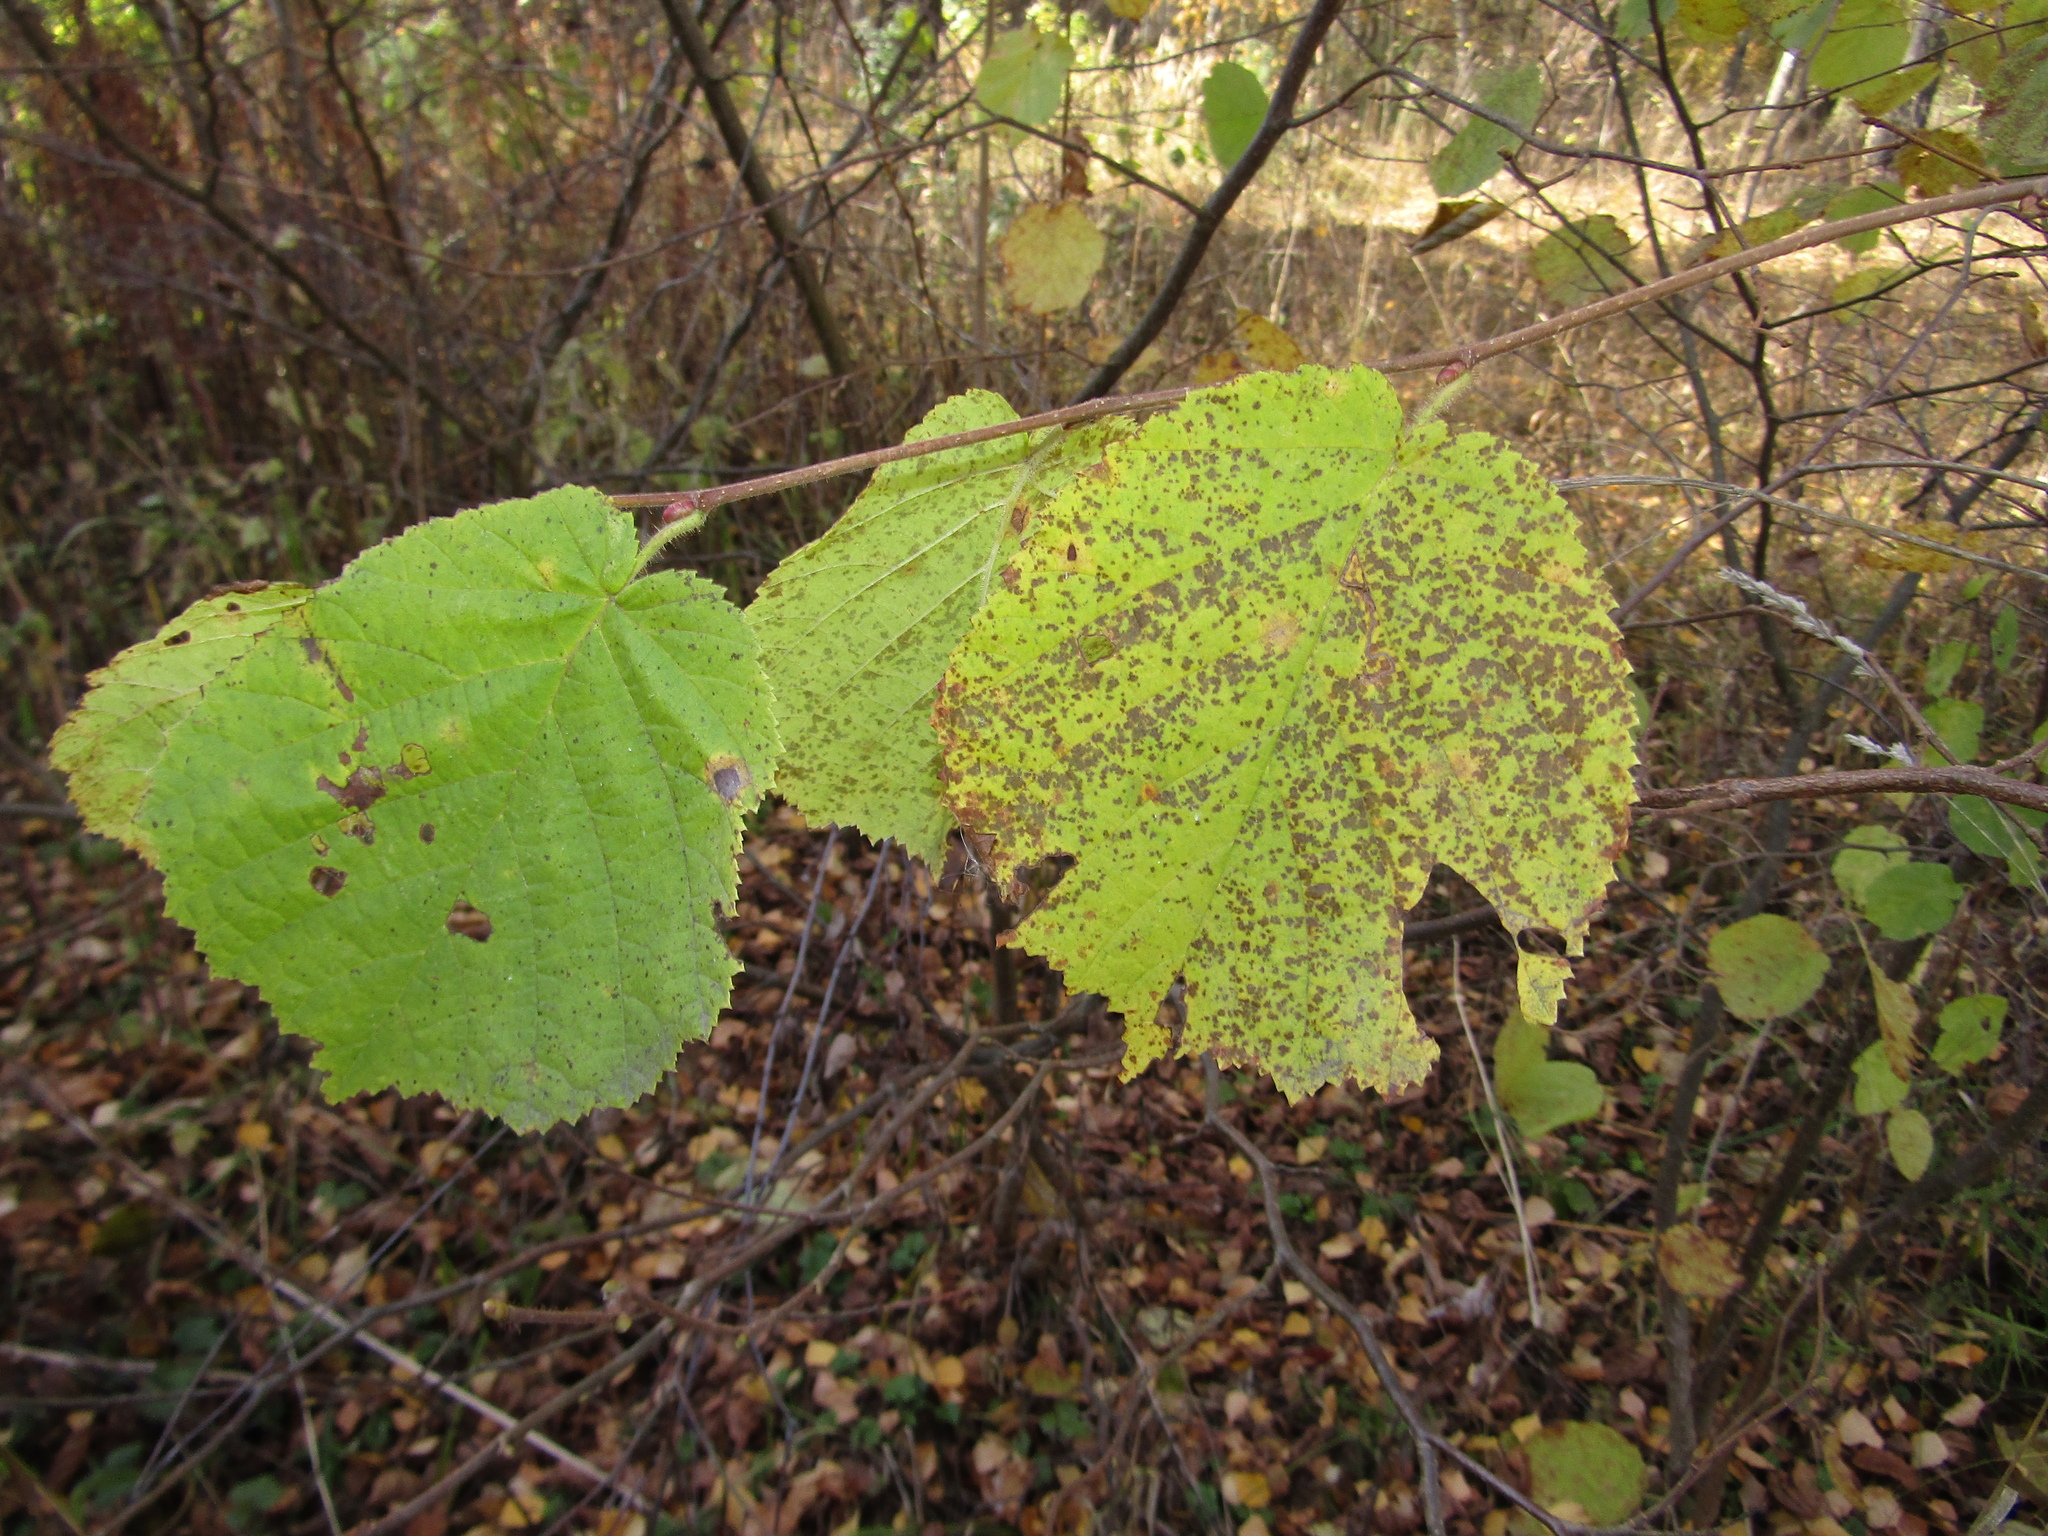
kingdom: Plantae
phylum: Tracheophyta
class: Magnoliopsida
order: Fagales
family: Betulaceae
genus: Corylus
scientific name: Corylus avellana
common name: European hazel
